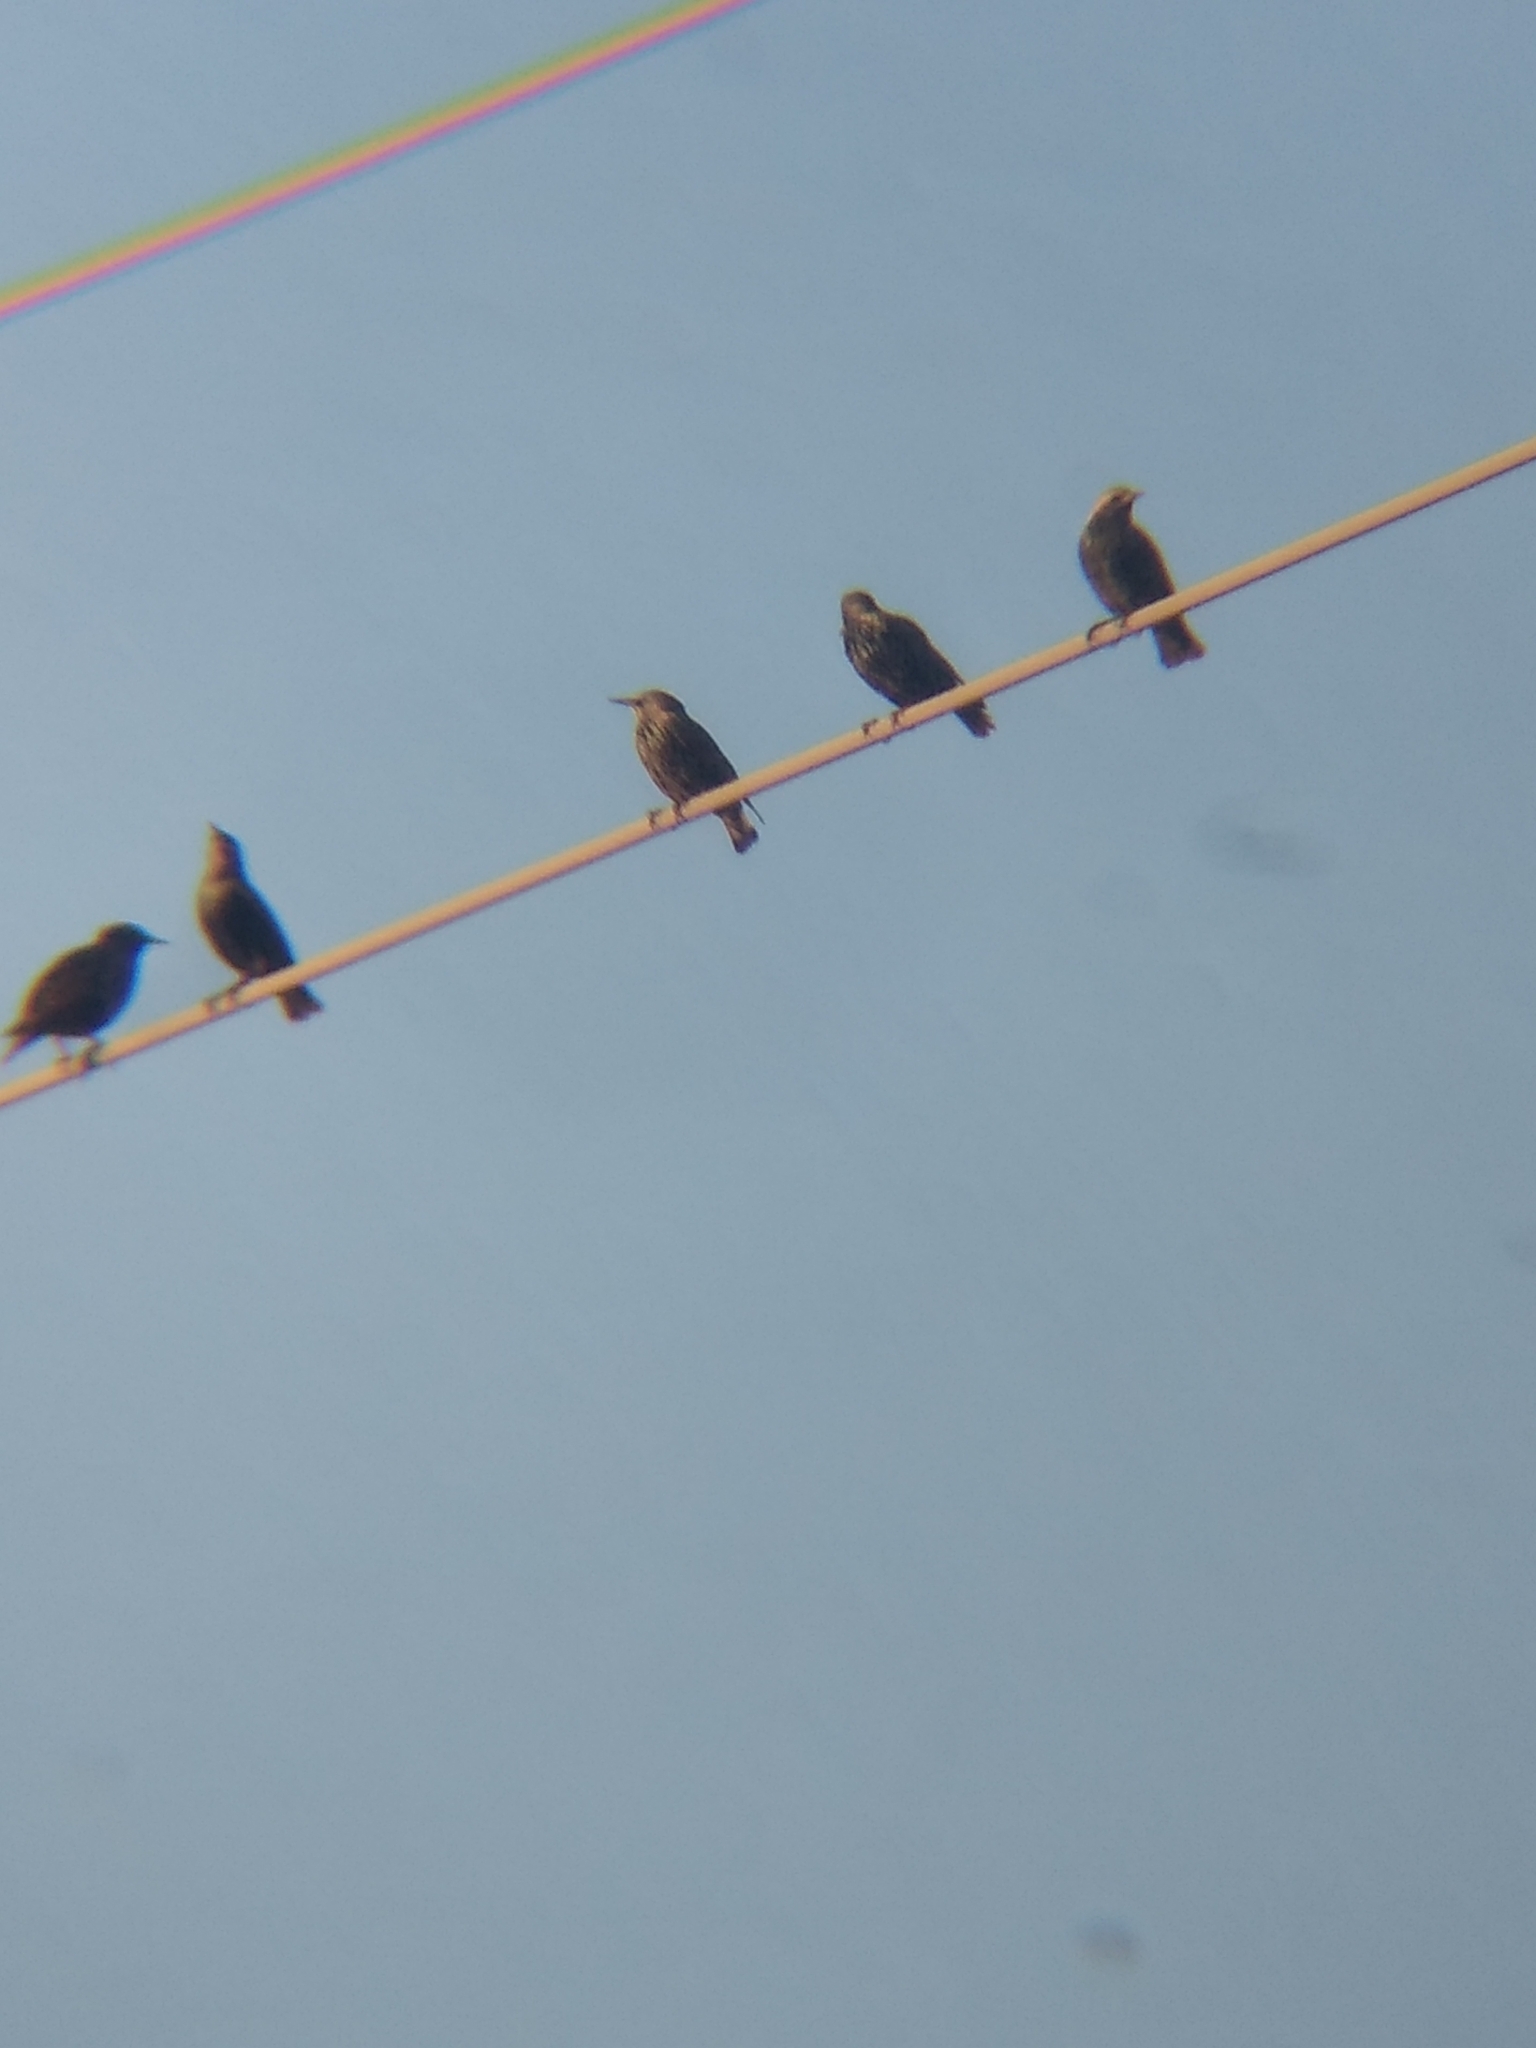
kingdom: Animalia
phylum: Chordata
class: Aves
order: Passeriformes
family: Sturnidae
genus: Sturnus
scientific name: Sturnus vulgaris
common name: Common starling
